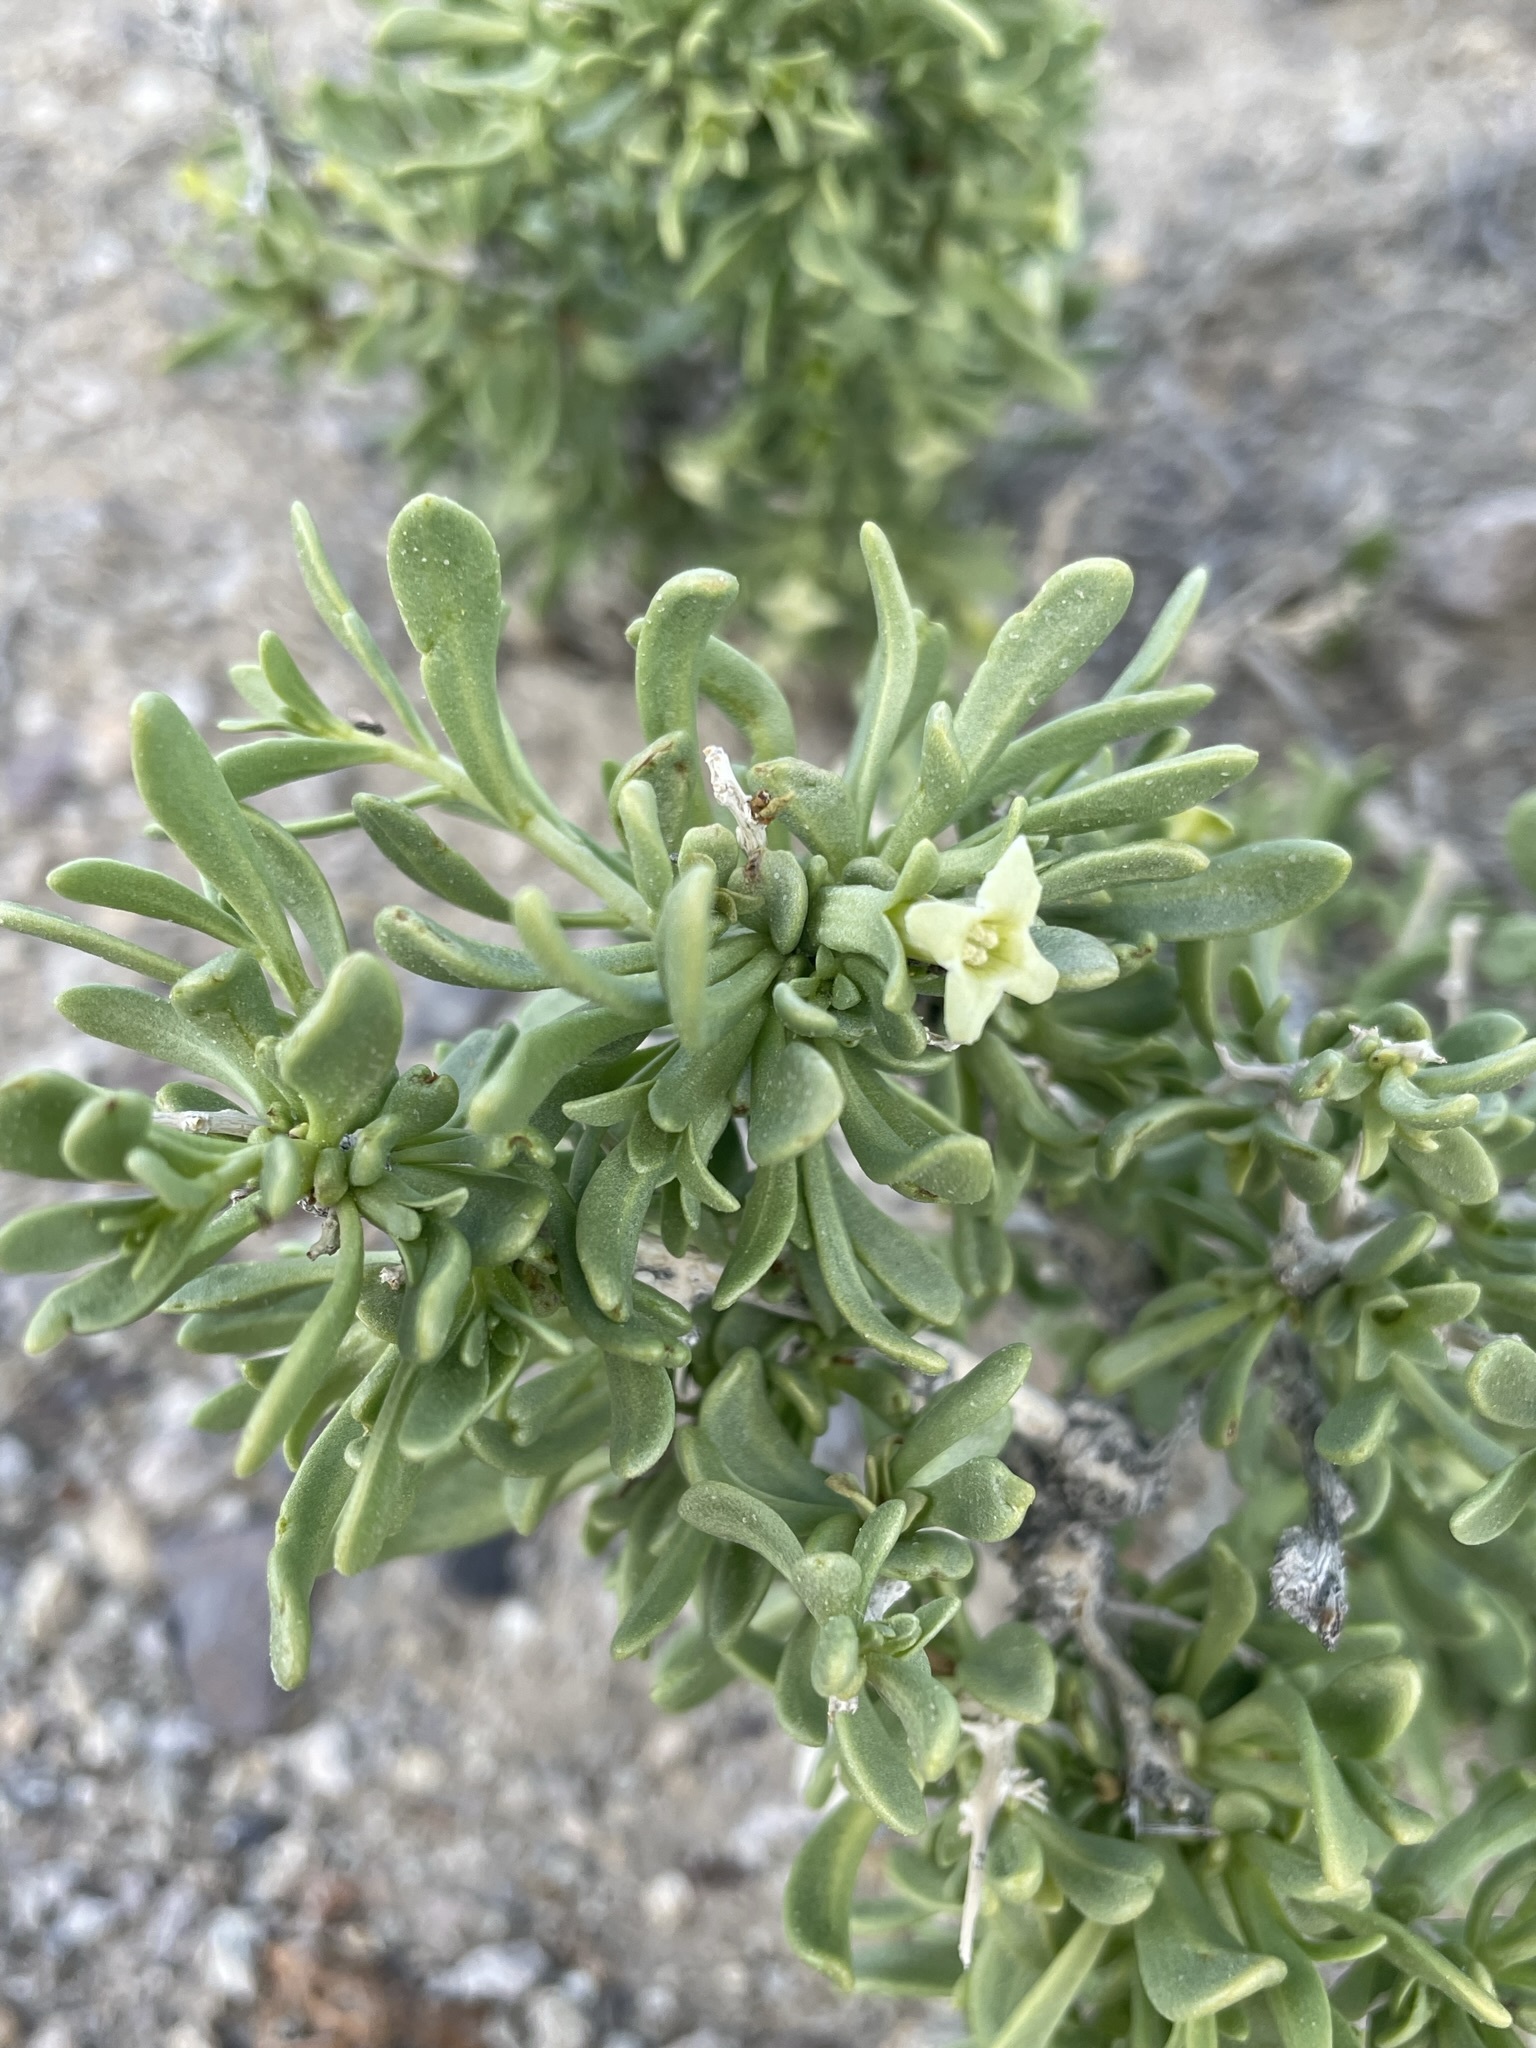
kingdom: Plantae
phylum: Tracheophyta
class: Magnoliopsida
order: Solanales
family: Solanaceae
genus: Lycium
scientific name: Lycium shockleyi
